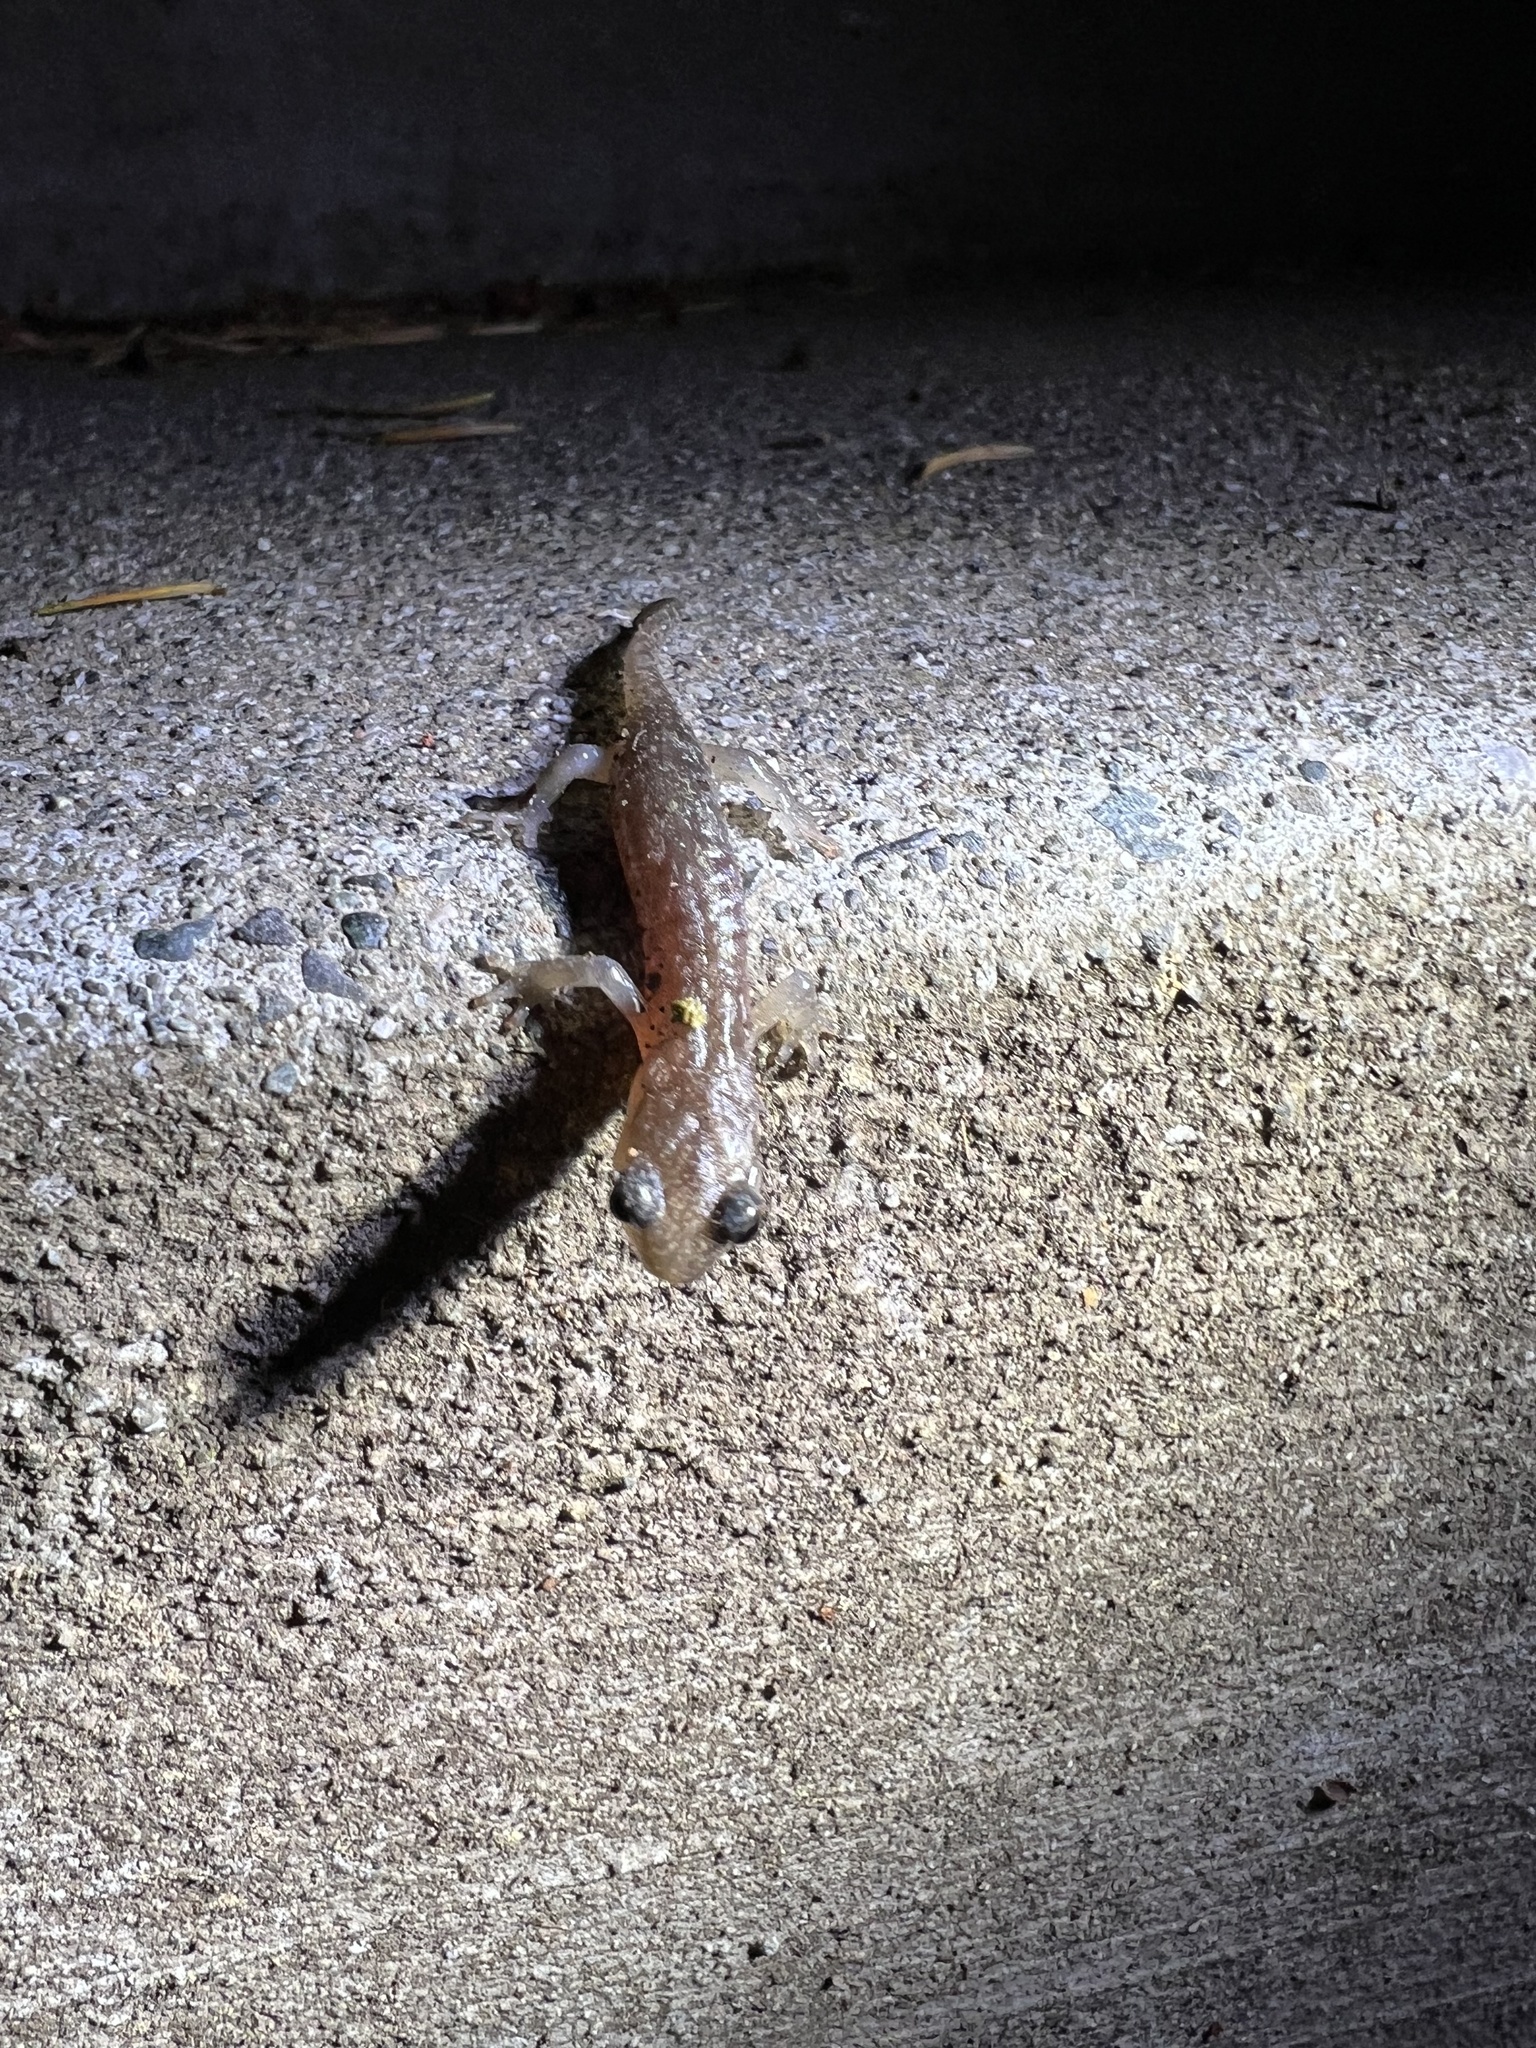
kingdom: Animalia
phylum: Chordata
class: Amphibia
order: Caudata
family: Plethodontidae
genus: Aneides
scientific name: Aneides lugubris
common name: Arboreal salamander
